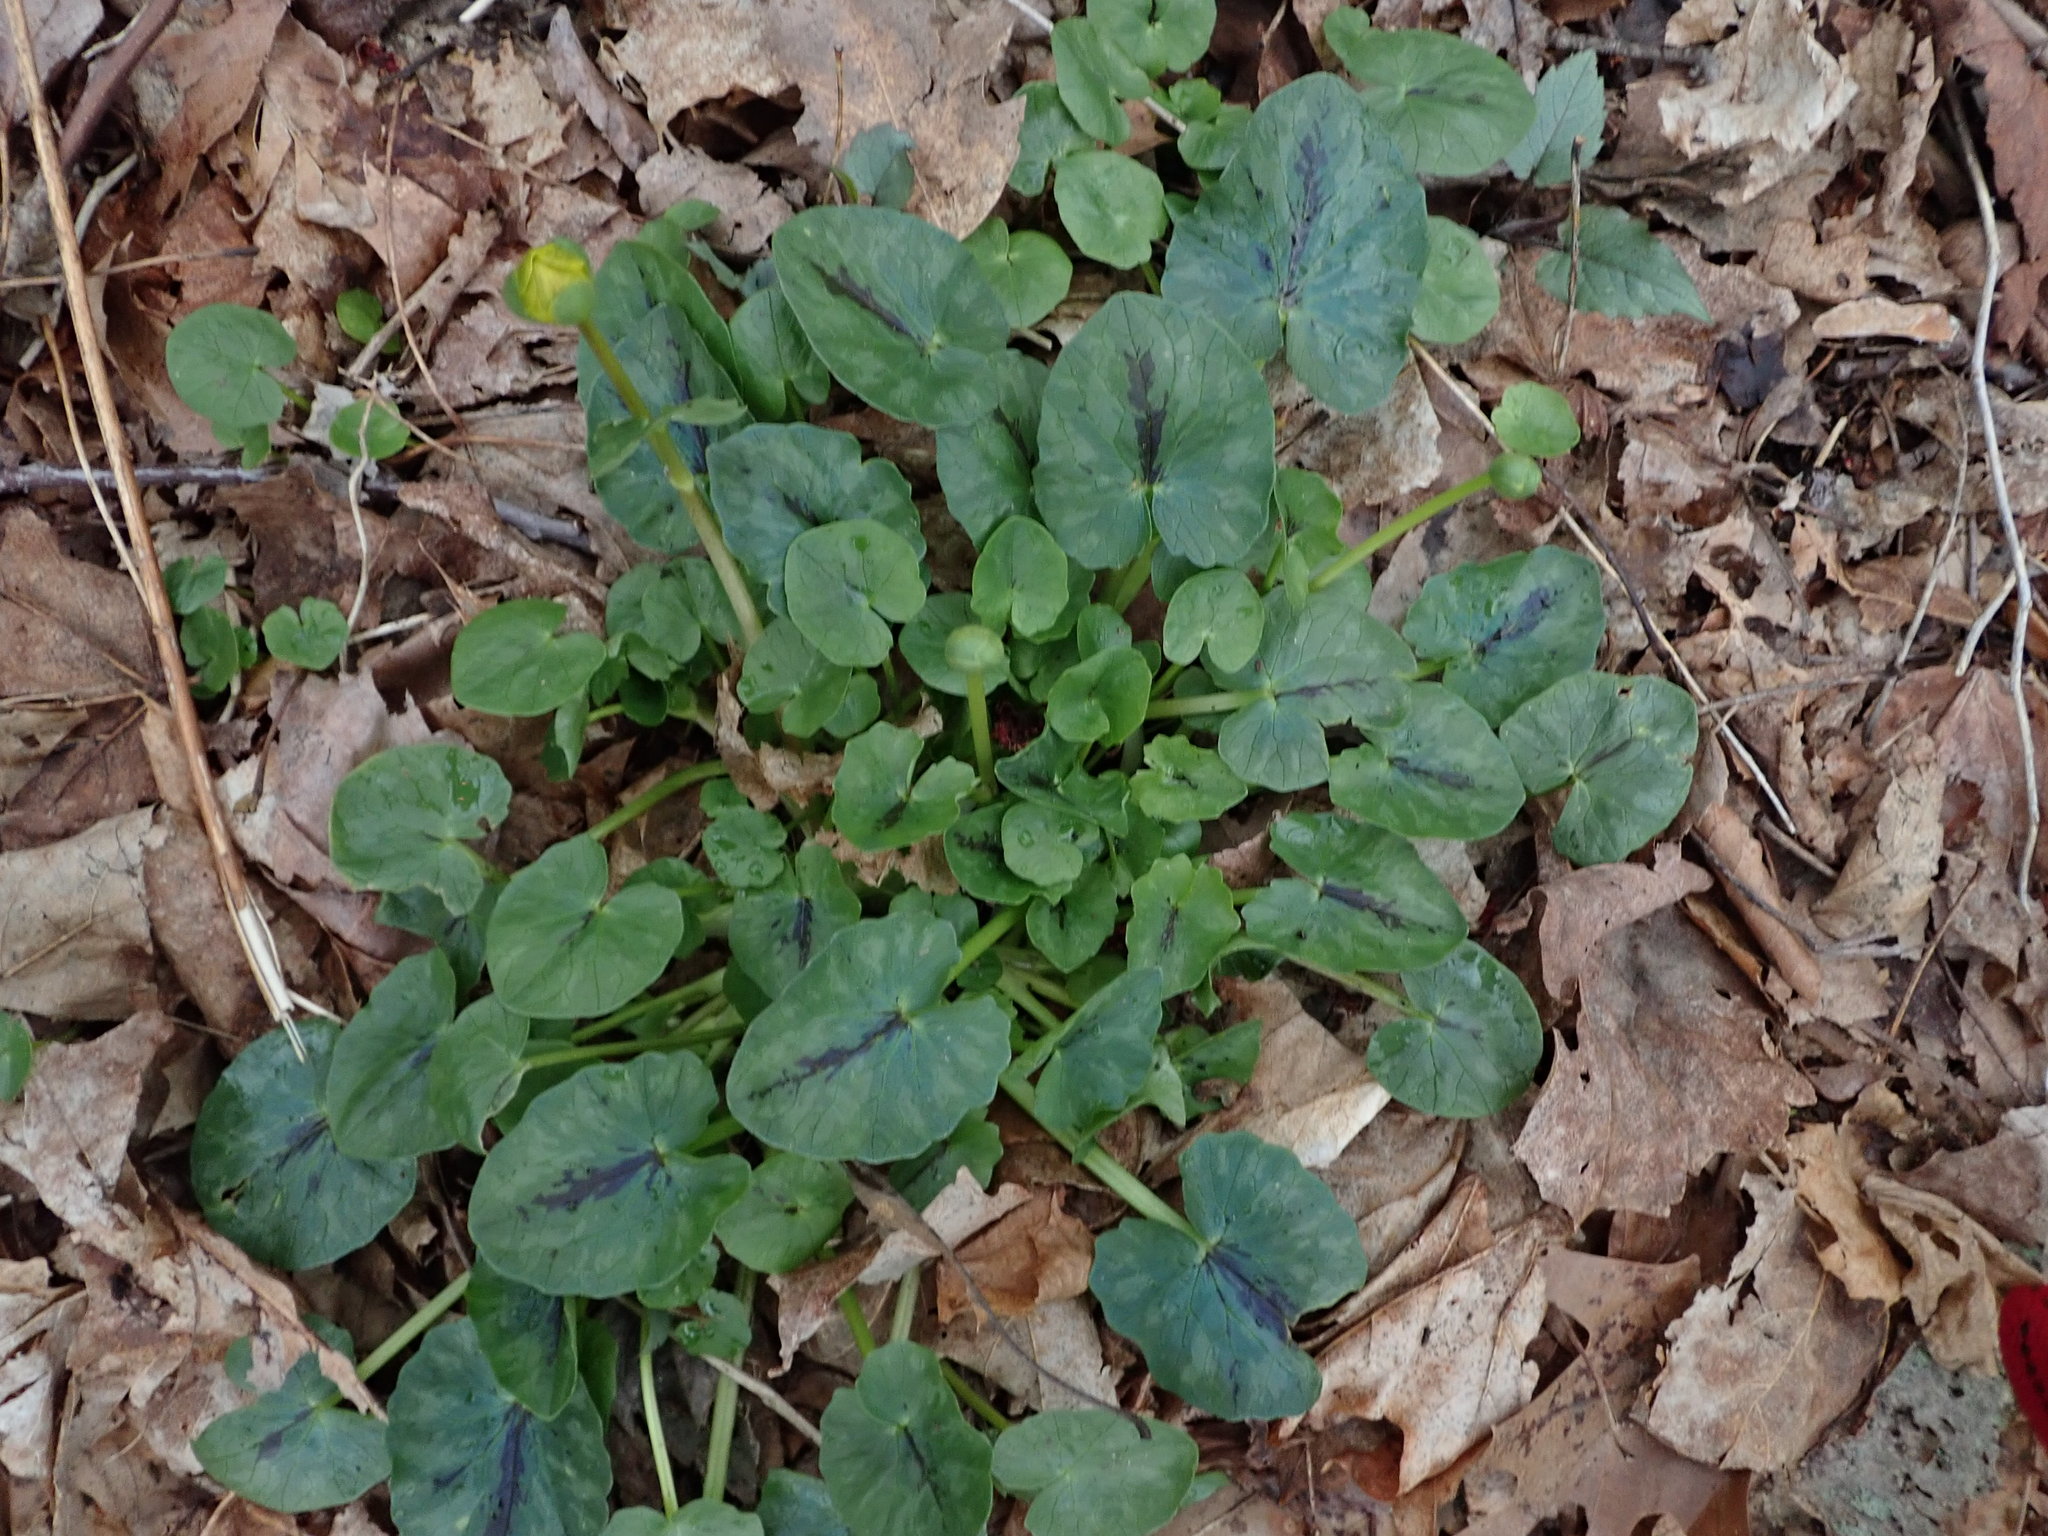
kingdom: Plantae
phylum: Tracheophyta
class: Magnoliopsida
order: Ranunculales
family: Ranunculaceae
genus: Ficaria
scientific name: Ficaria verna
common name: Lesser celandine
